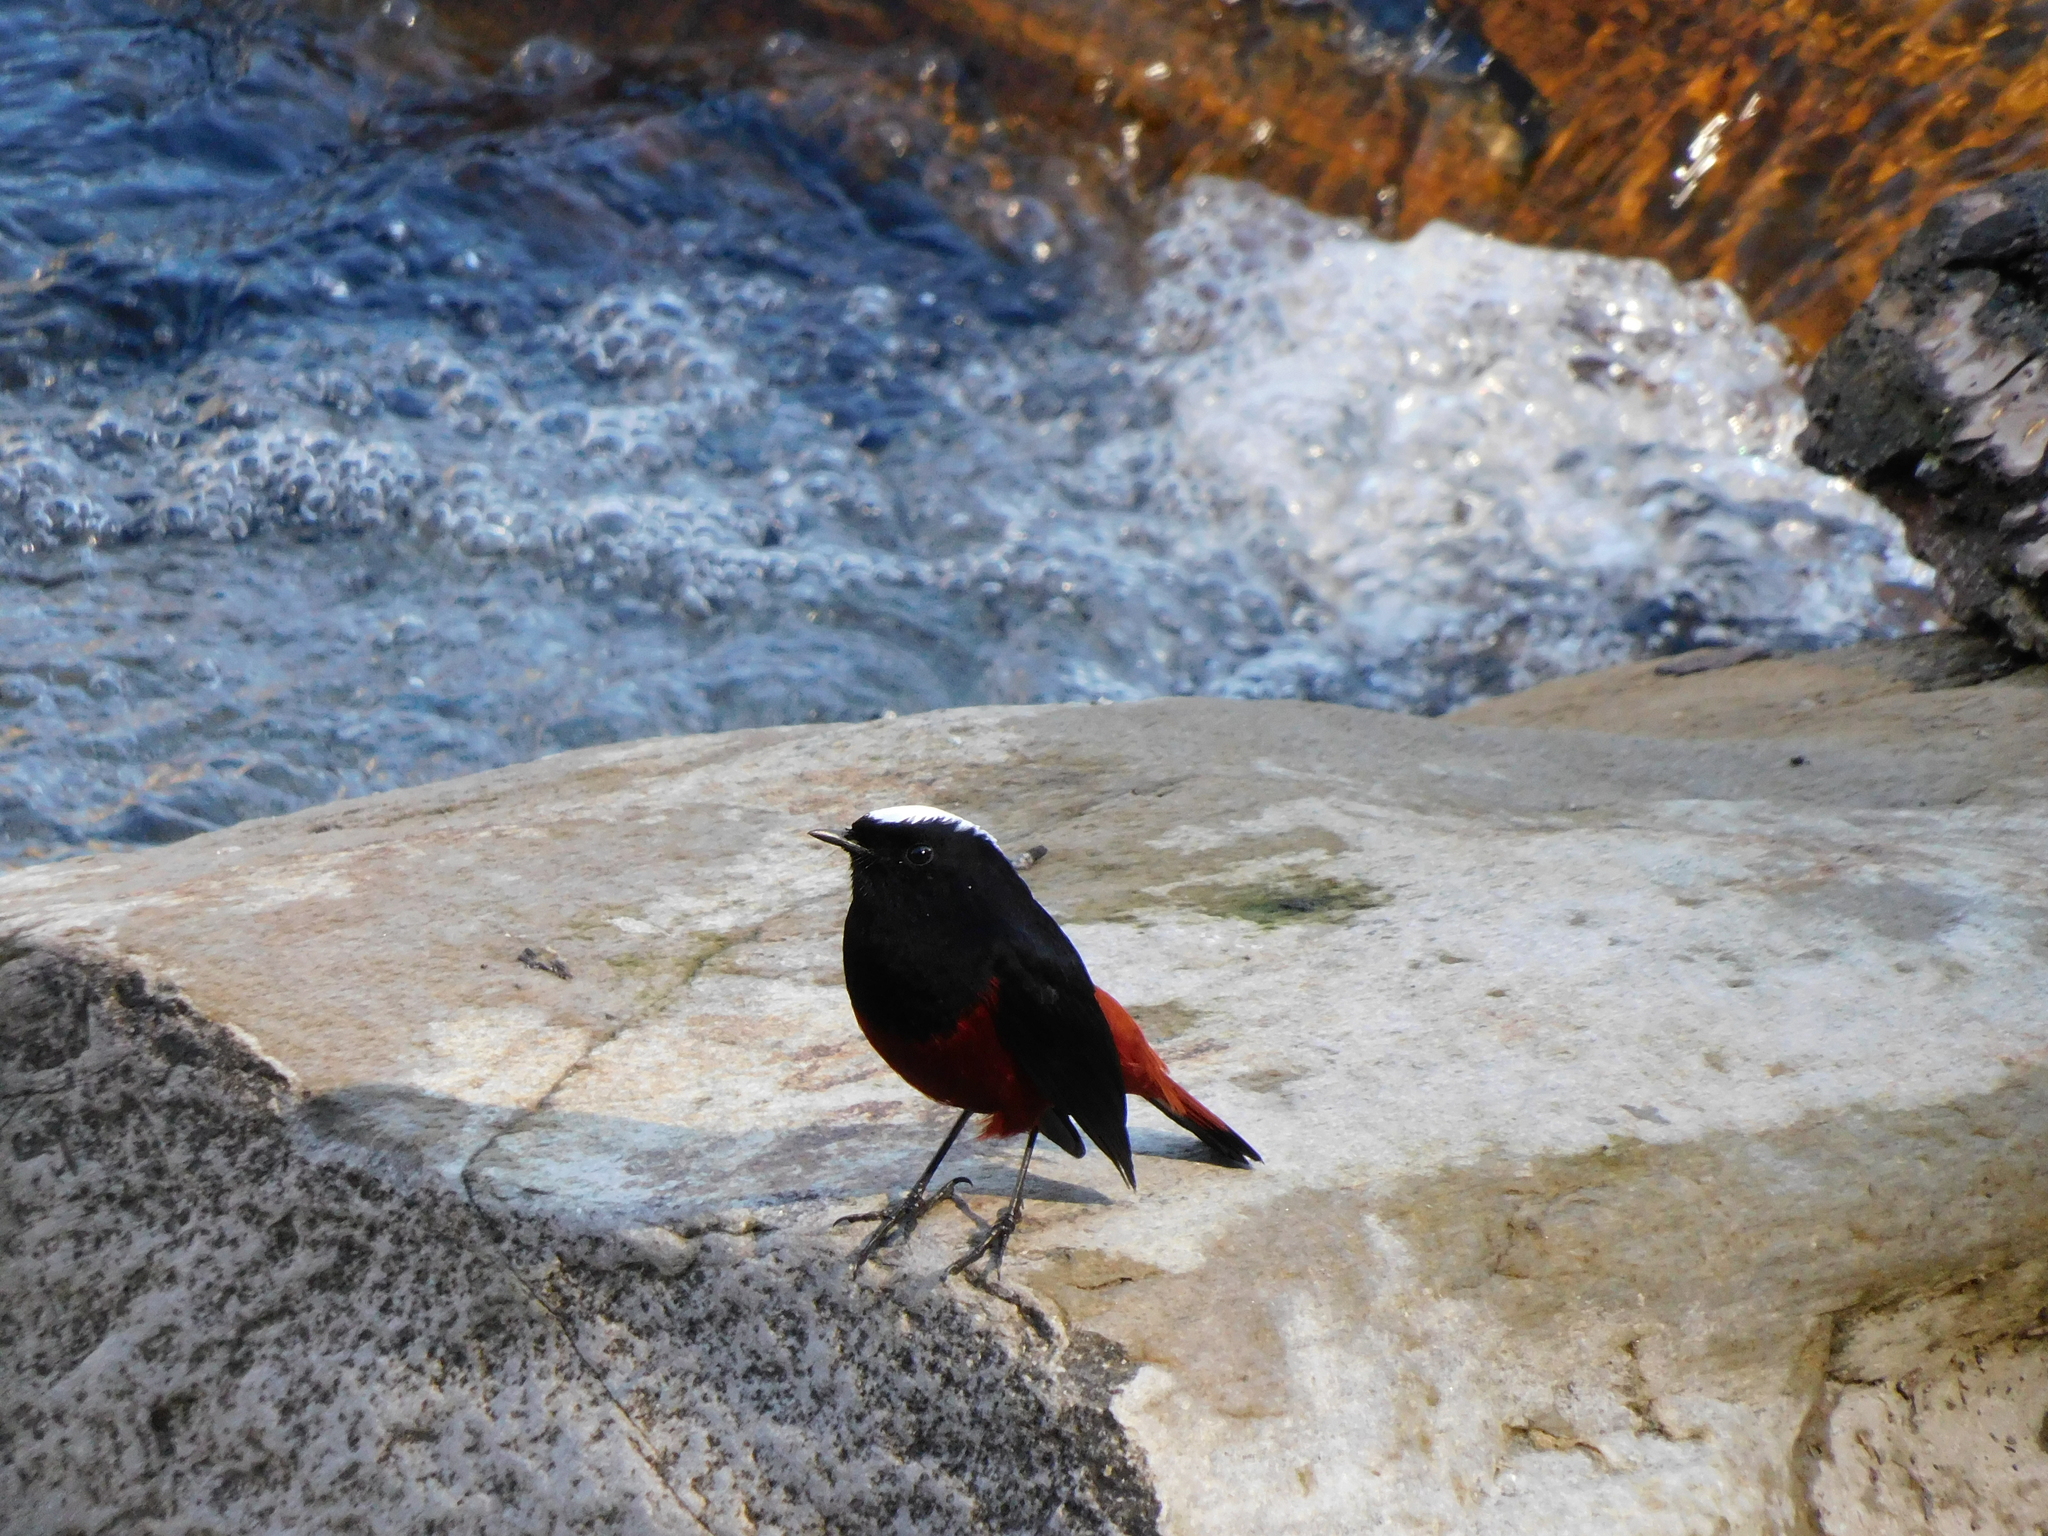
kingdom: Animalia
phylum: Chordata
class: Aves
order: Passeriformes
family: Muscicapidae
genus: Chaimarrornis
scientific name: Chaimarrornis leucocephalus
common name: White-capped redstart
